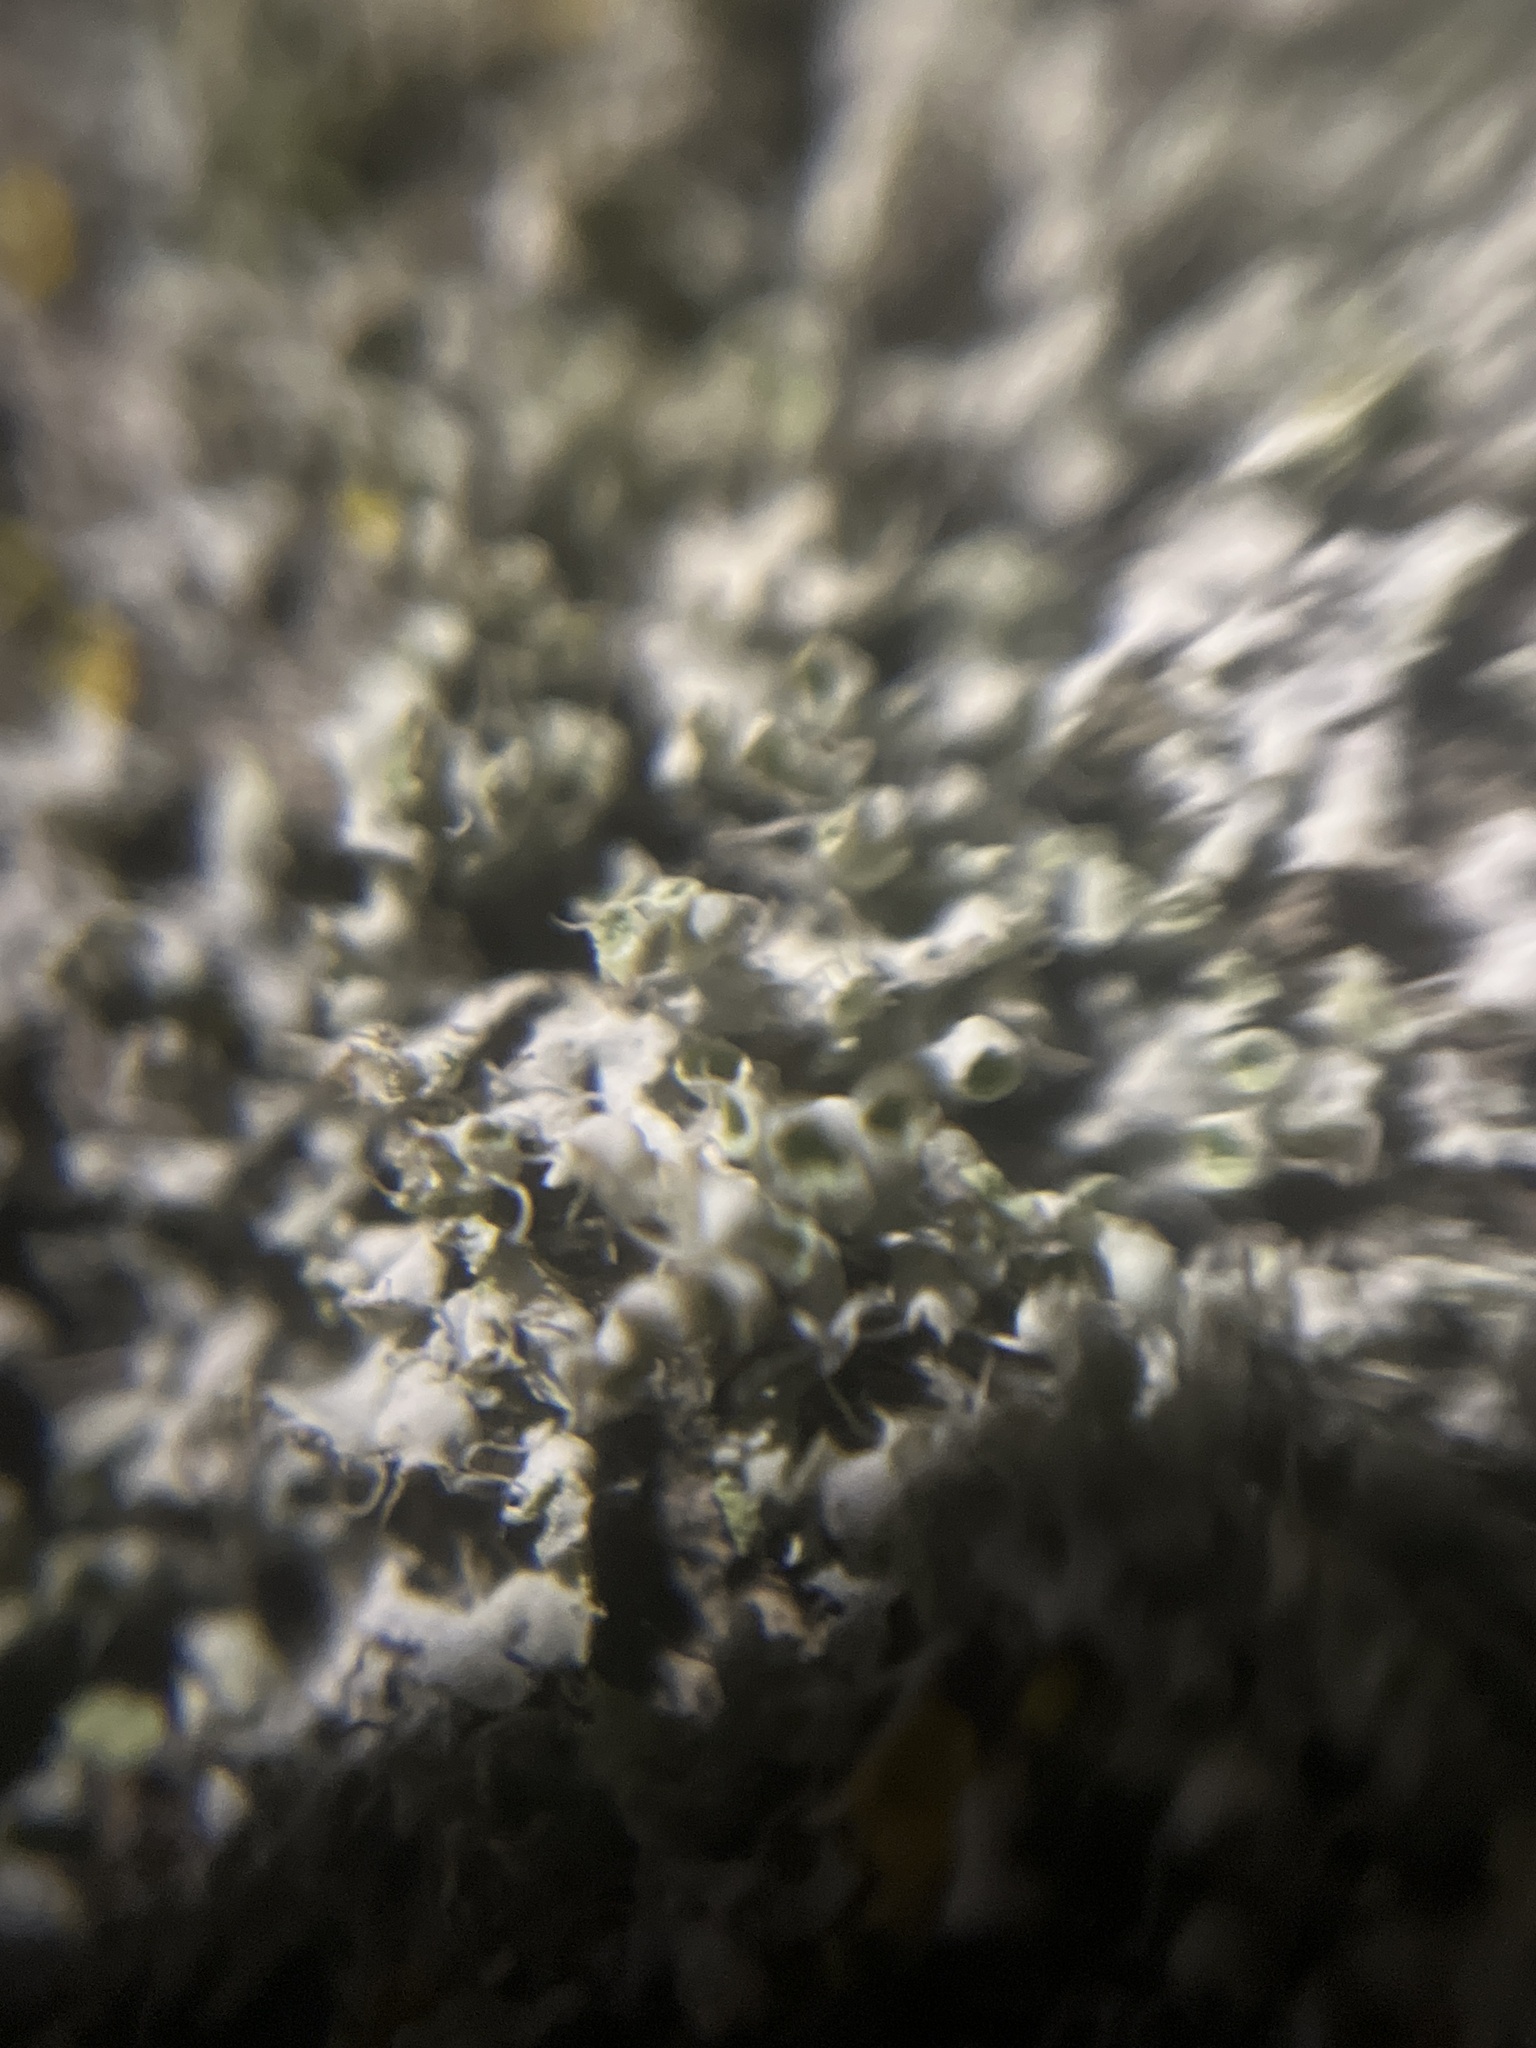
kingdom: Fungi
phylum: Ascomycota
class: Lecanoromycetes
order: Caliciales
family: Physciaceae
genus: Physcia
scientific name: Physcia adscendens
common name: Hooded rosette lichen
